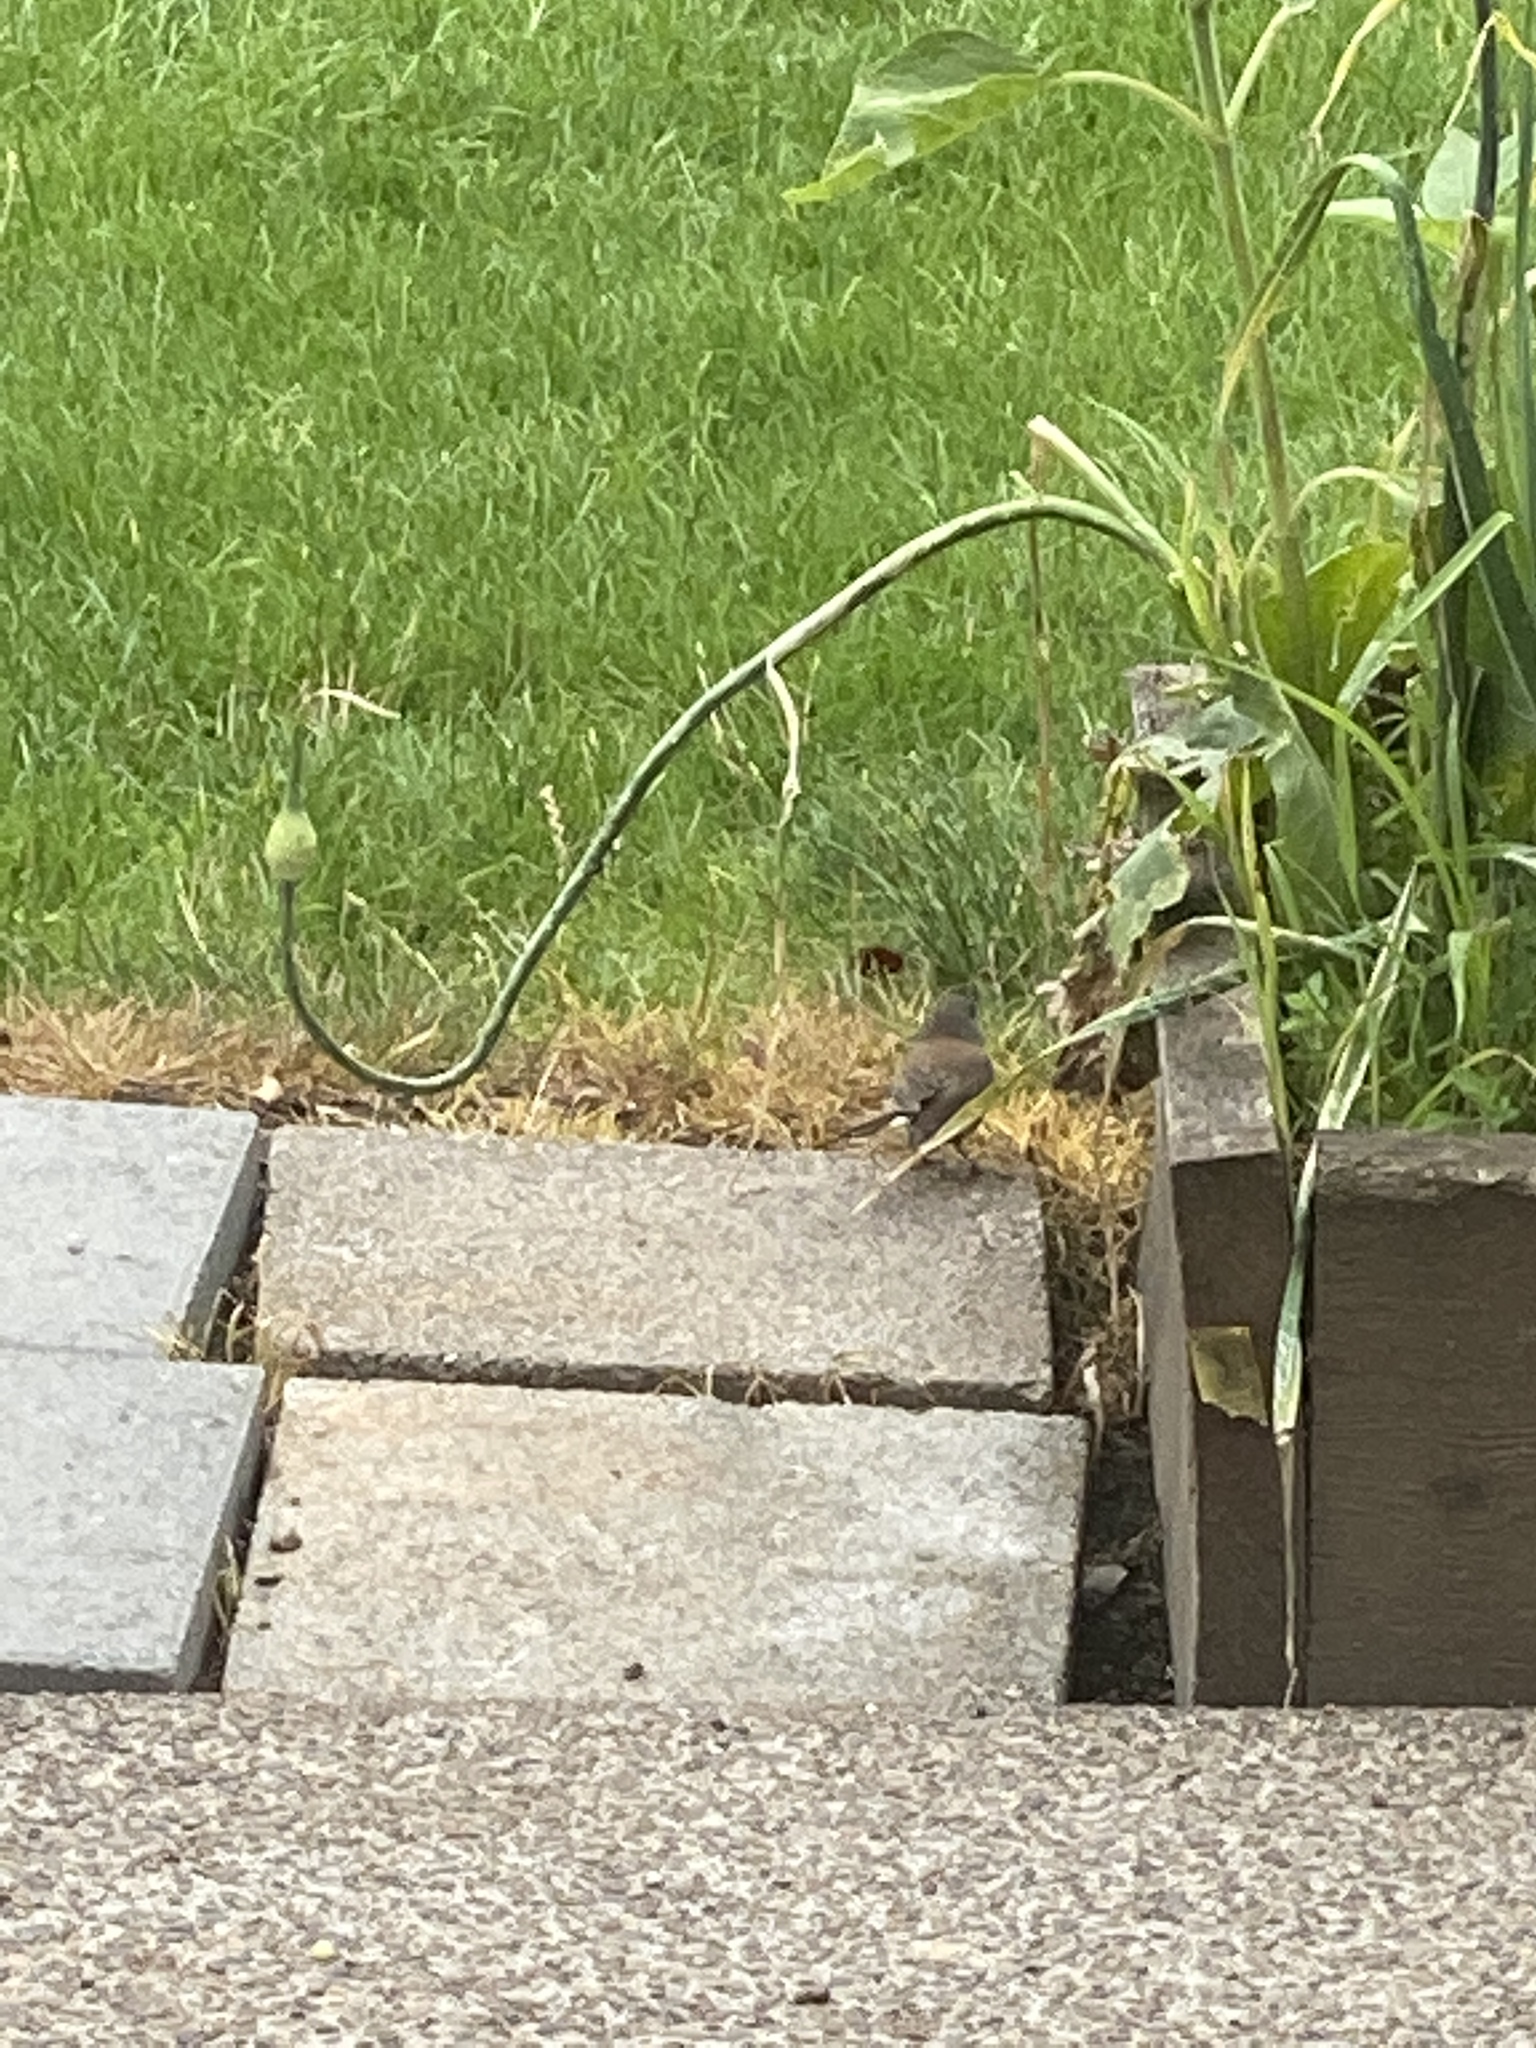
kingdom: Animalia
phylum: Chordata
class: Aves
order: Passeriformes
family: Passerellidae
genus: Junco
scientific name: Junco hyemalis
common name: Dark-eyed junco
